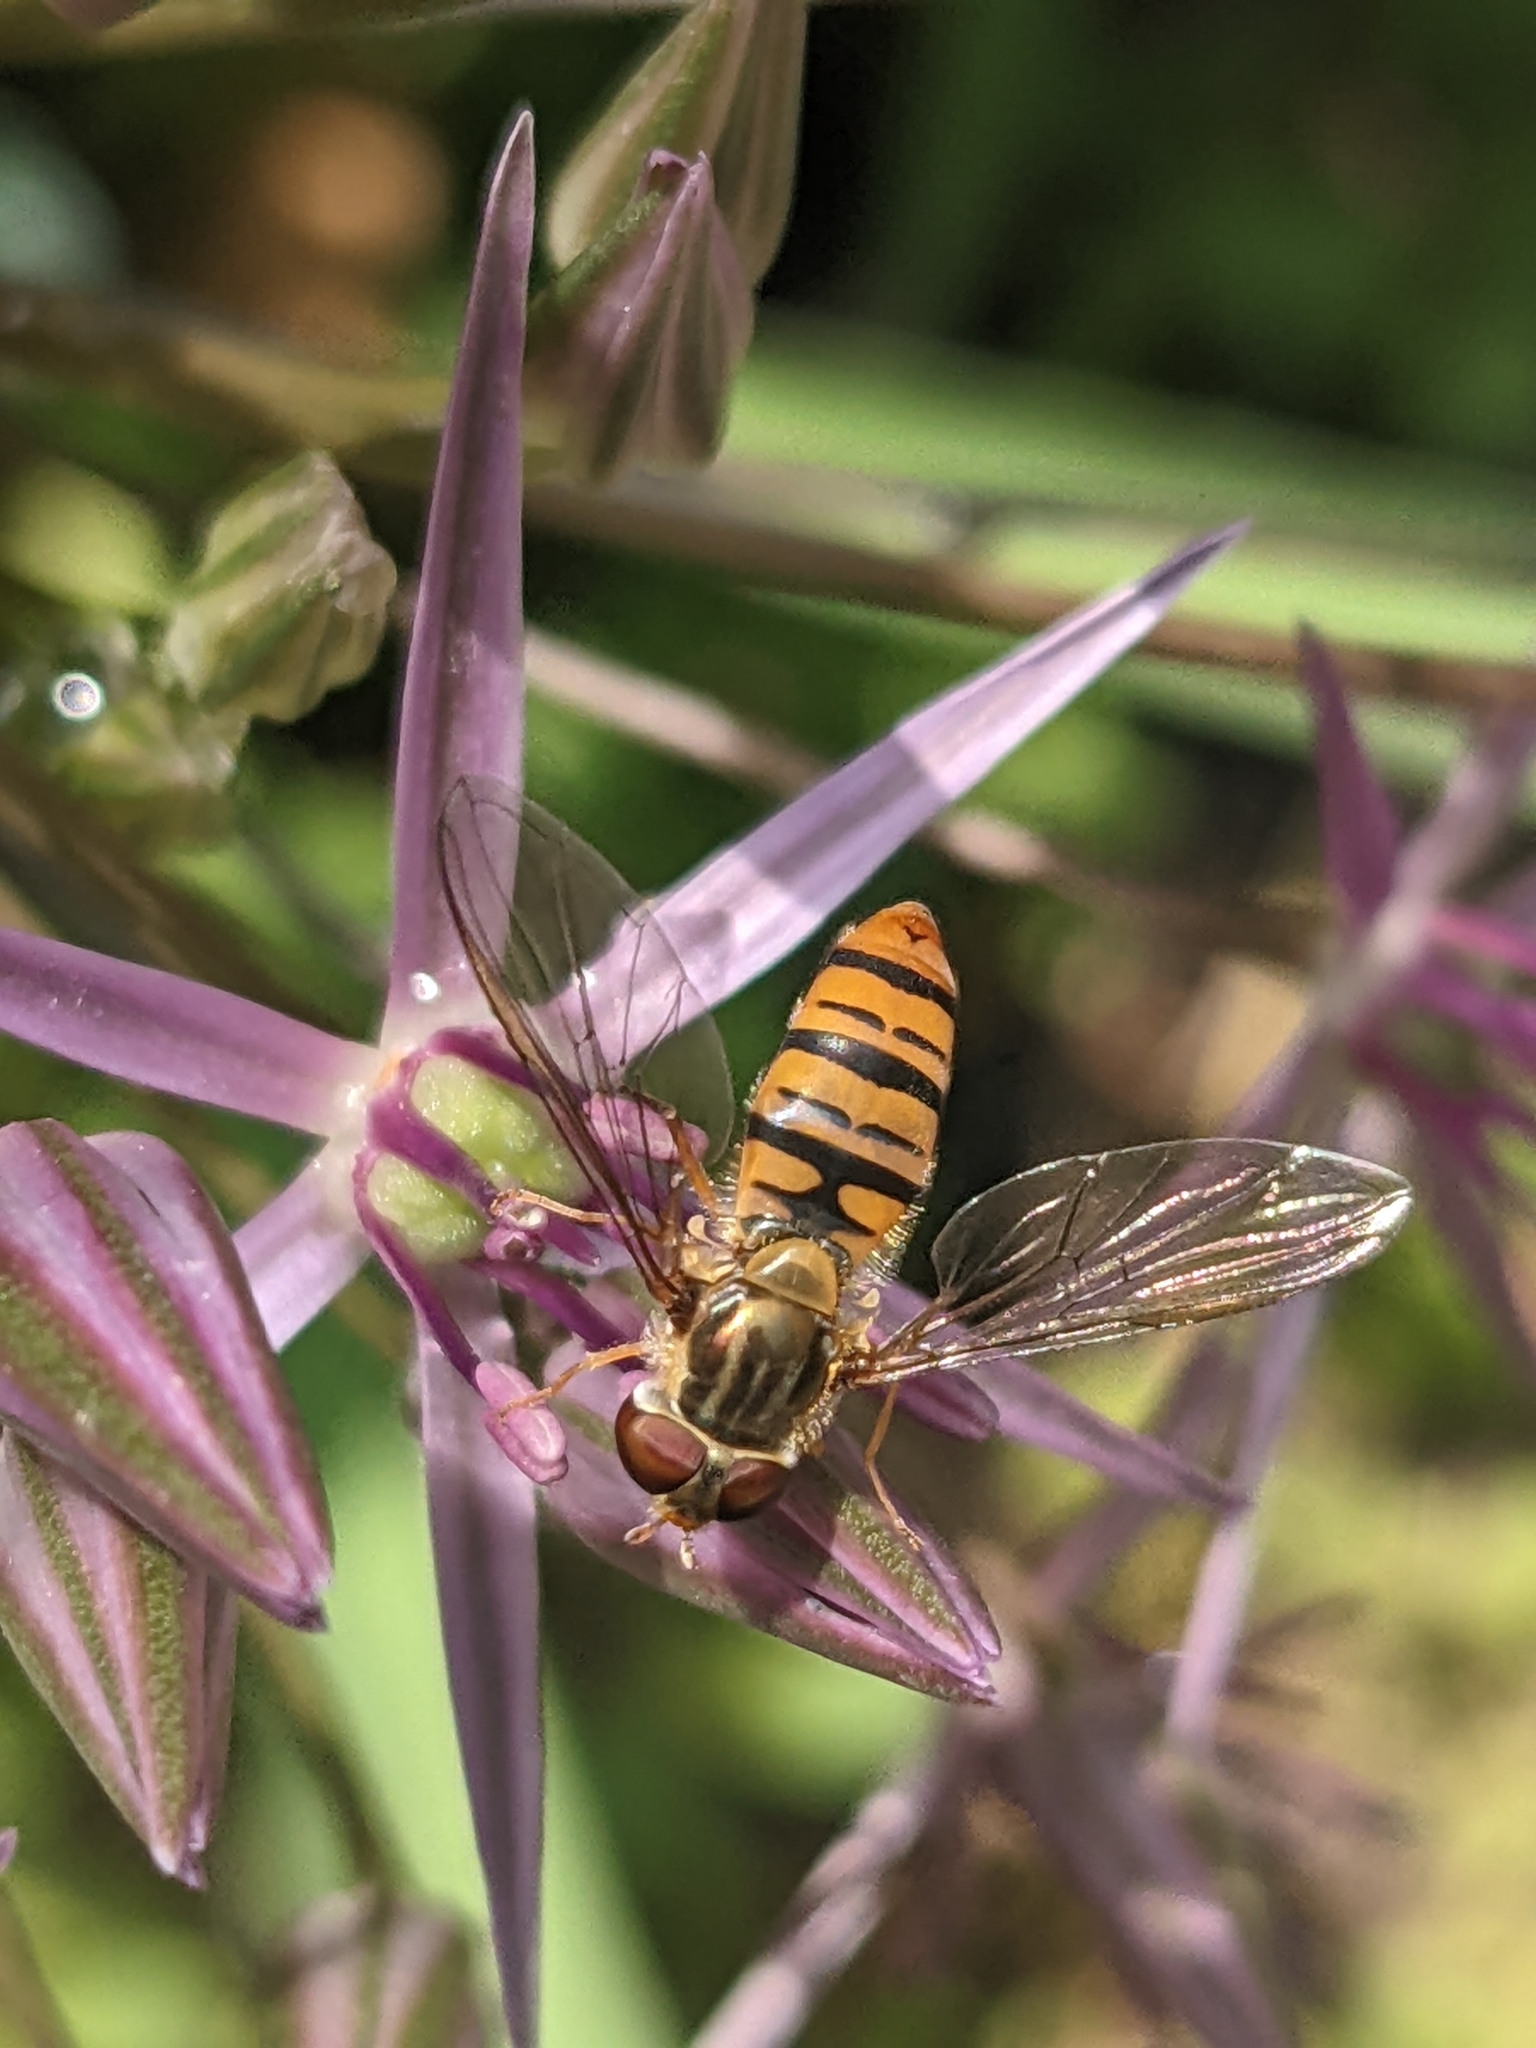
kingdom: Animalia
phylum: Arthropoda
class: Insecta
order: Diptera
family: Syrphidae
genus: Episyrphus
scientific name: Episyrphus balteatus
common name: Marmalade hoverfly
